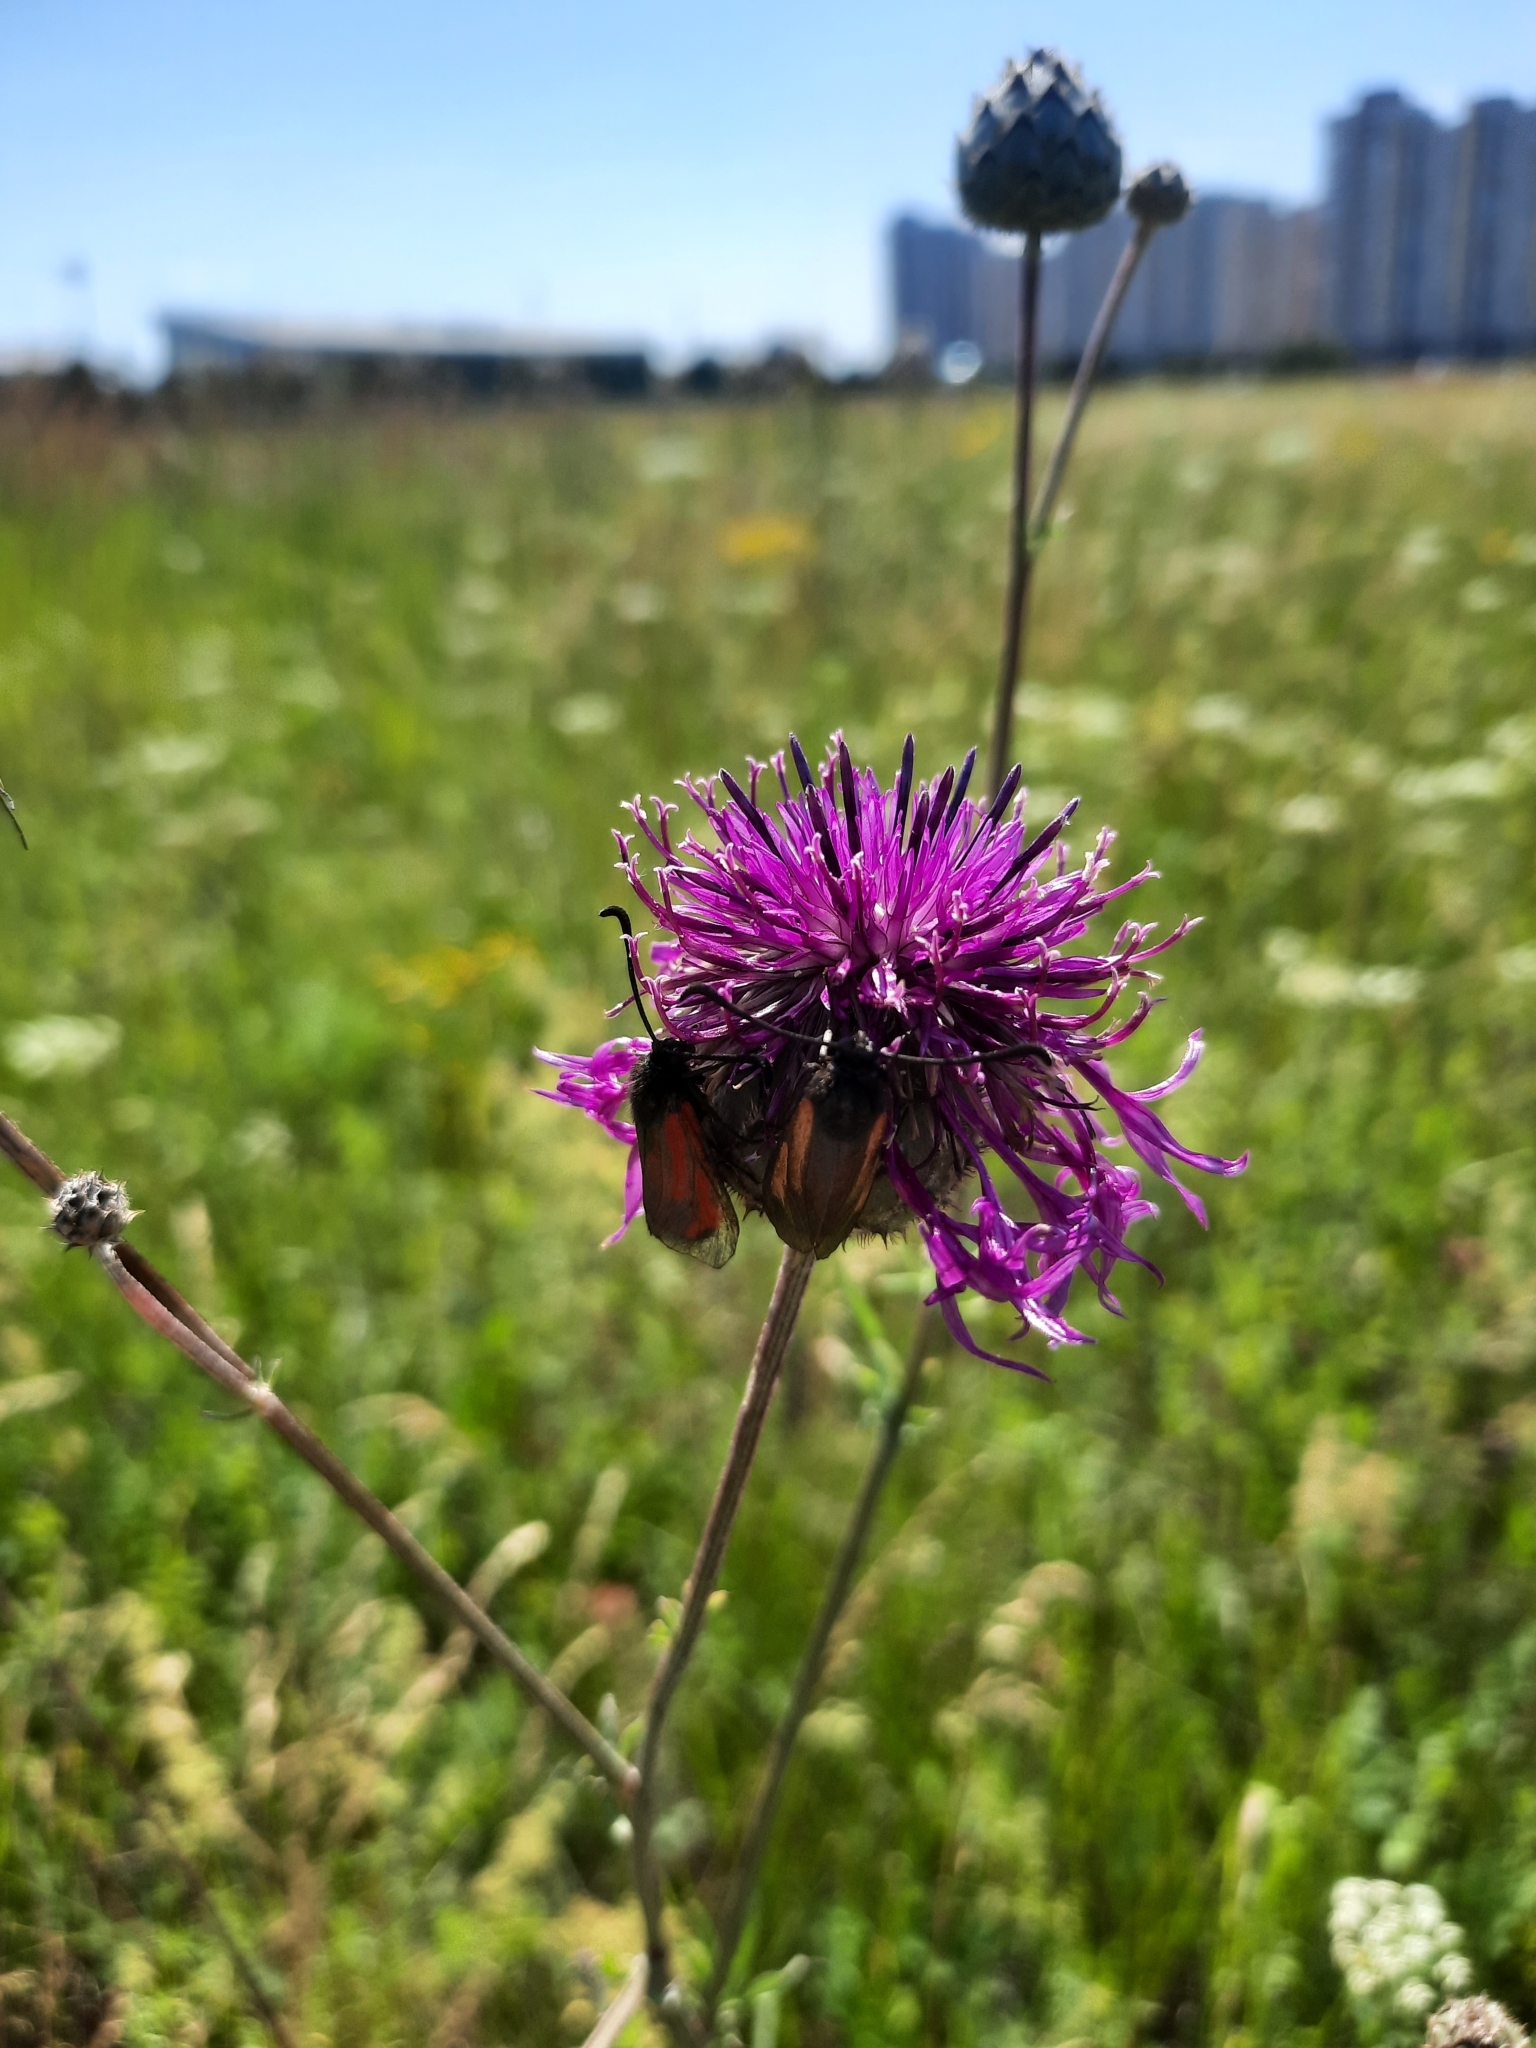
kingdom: Animalia
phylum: Arthropoda
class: Insecta
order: Lepidoptera
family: Zygaenidae
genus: Zygaena
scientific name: Zygaena minos
